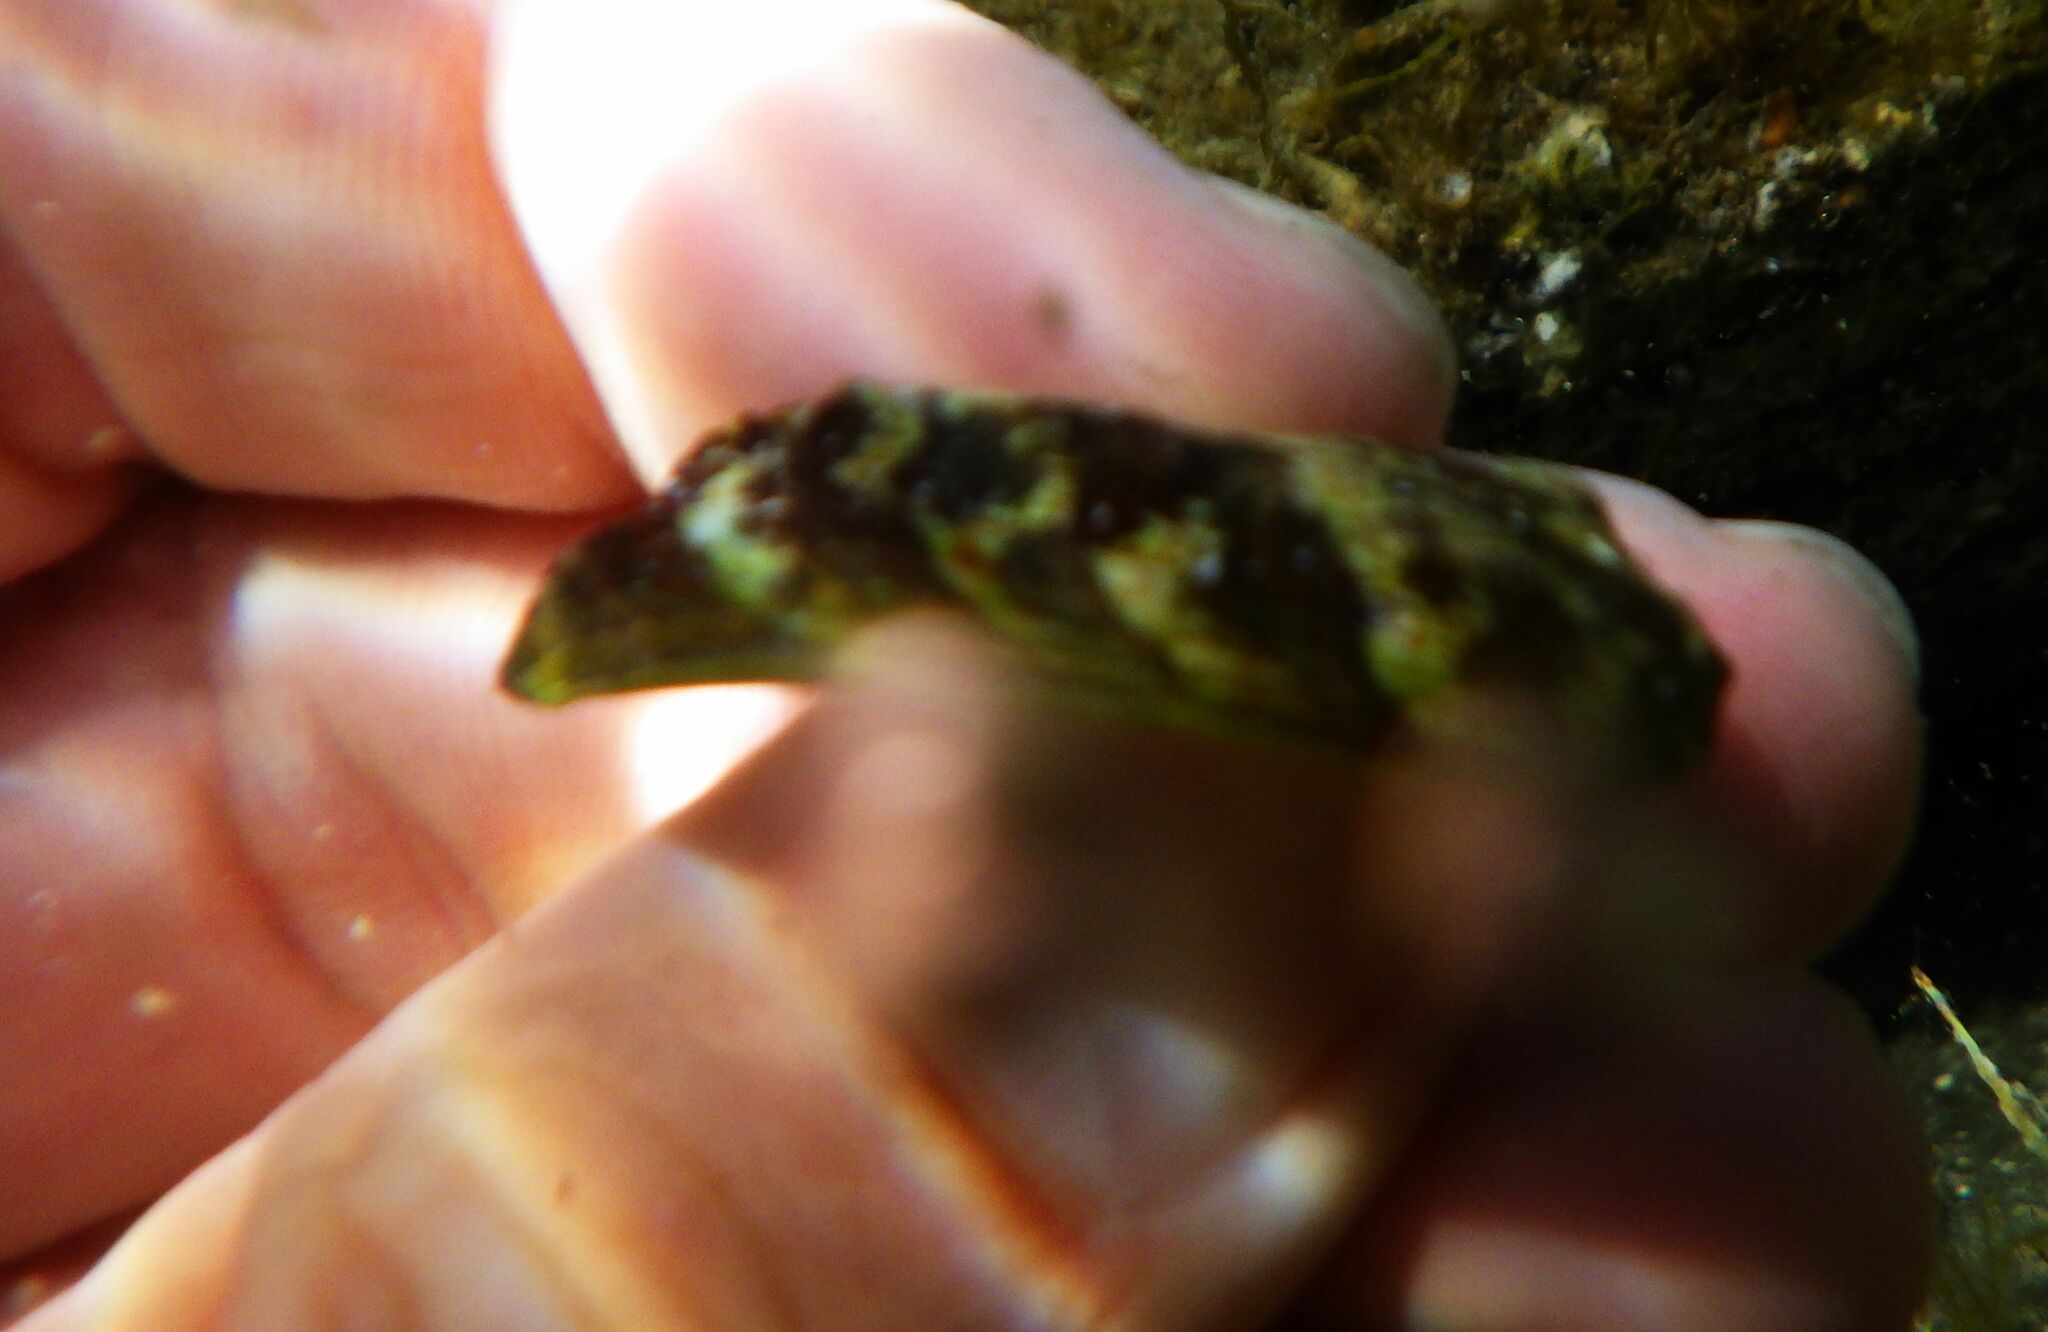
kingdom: Animalia
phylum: Mollusca
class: Gastropoda
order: Lepetellida
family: Haliotidae
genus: Haliotis
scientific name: Haliotis tuberculata
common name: Green ormer
